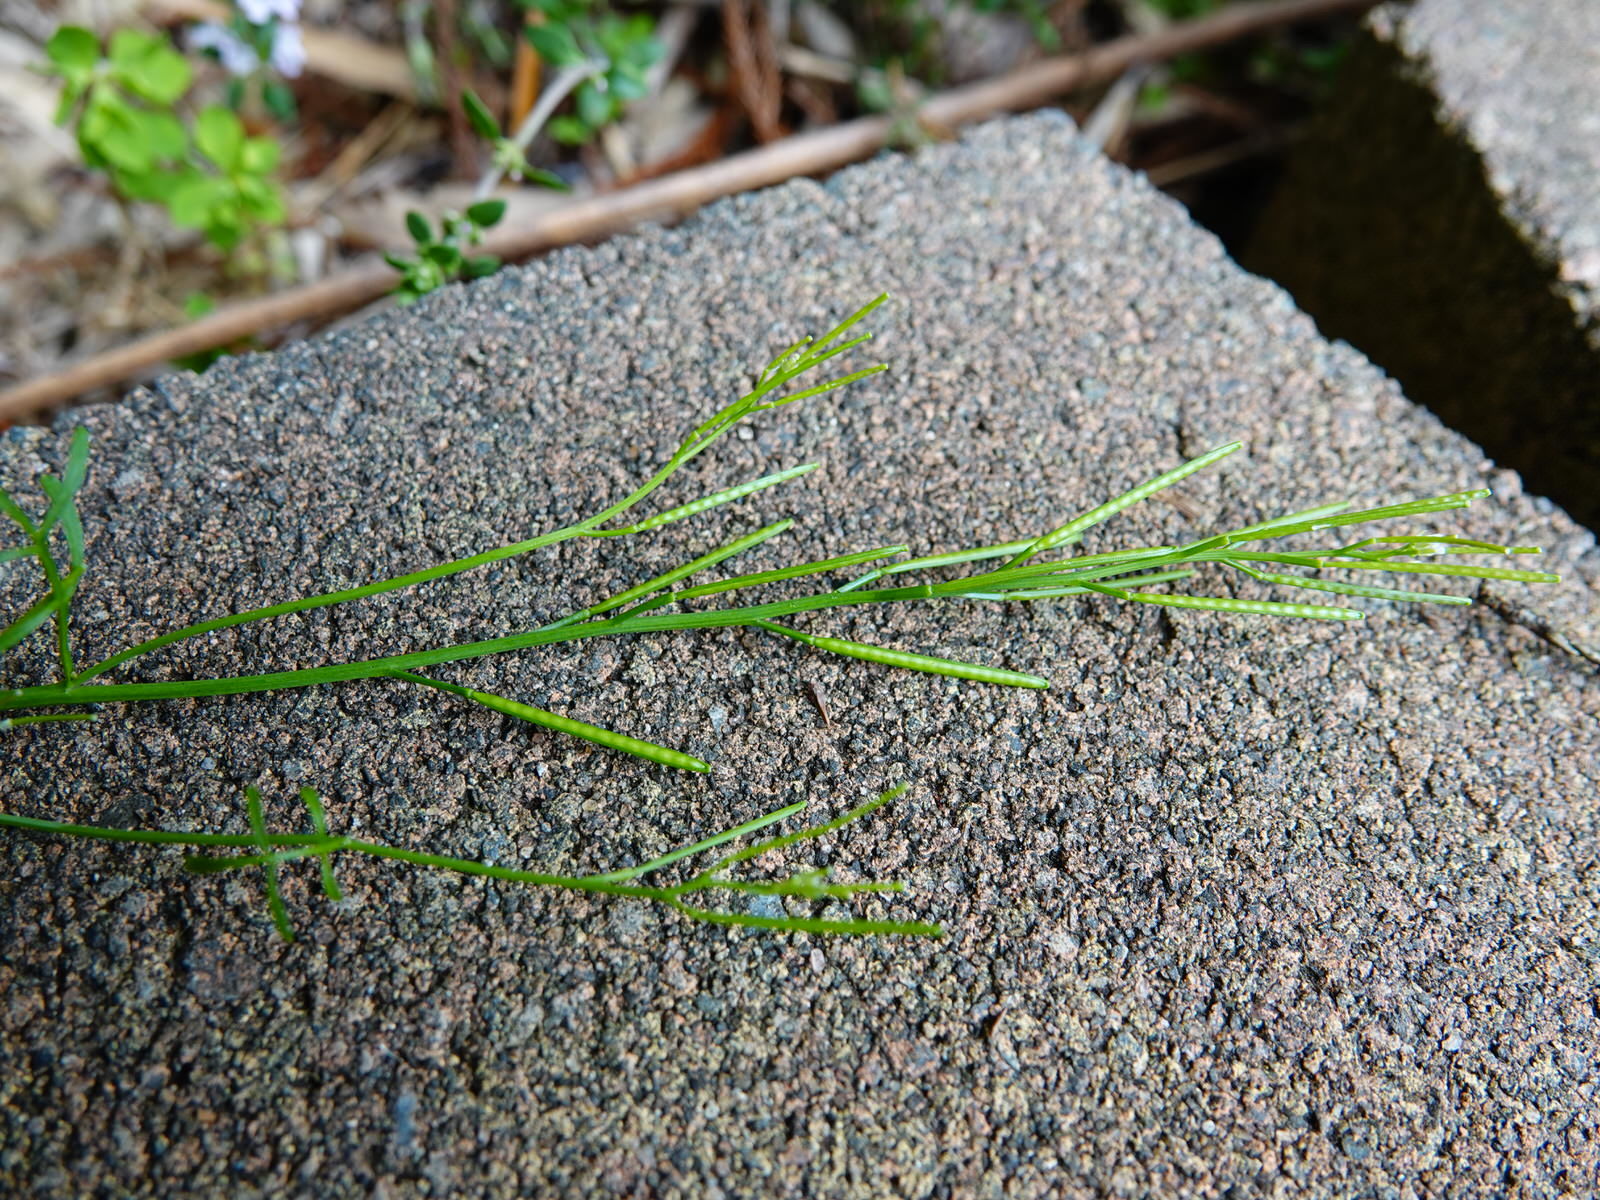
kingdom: Plantae
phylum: Tracheophyta
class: Magnoliopsida
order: Brassicales
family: Brassicaceae
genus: Cardamine
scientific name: Cardamine hirsuta
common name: Hairy bittercress
